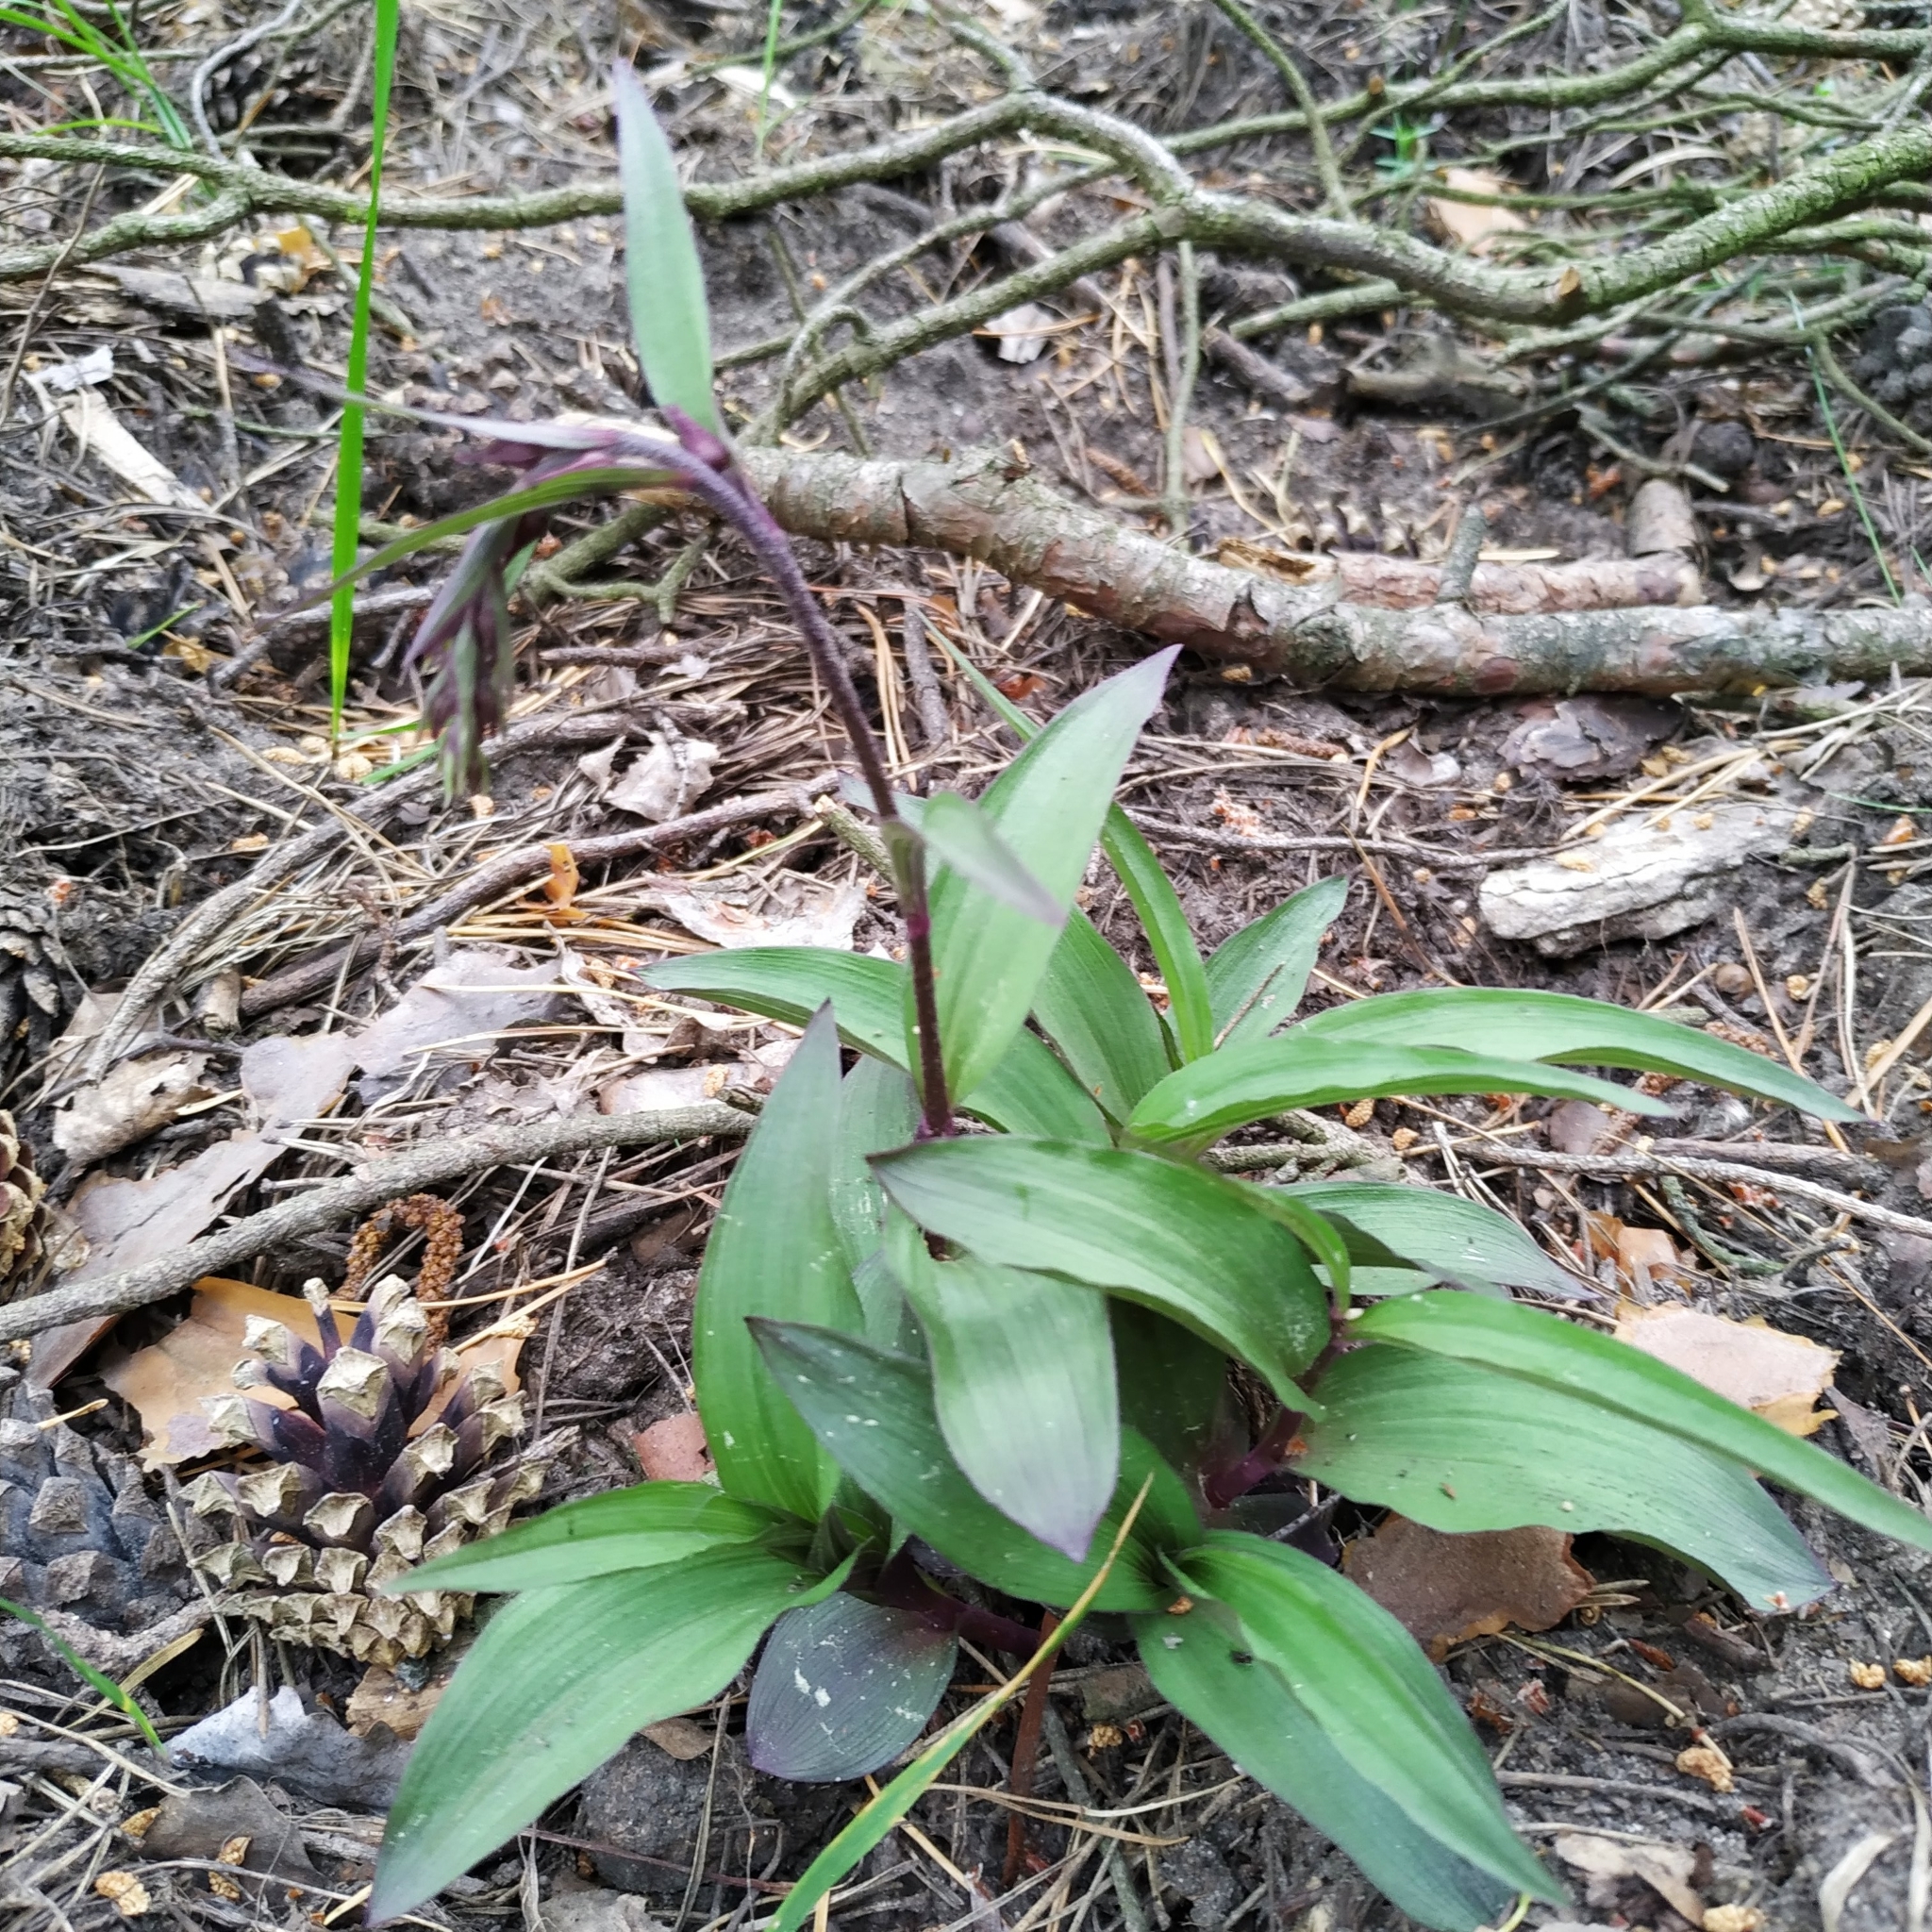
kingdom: Plantae
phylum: Tracheophyta
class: Liliopsida
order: Asparagales
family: Orchidaceae
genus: Epipactis
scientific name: Epipactis atrorubens
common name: Dark-red helleborine
